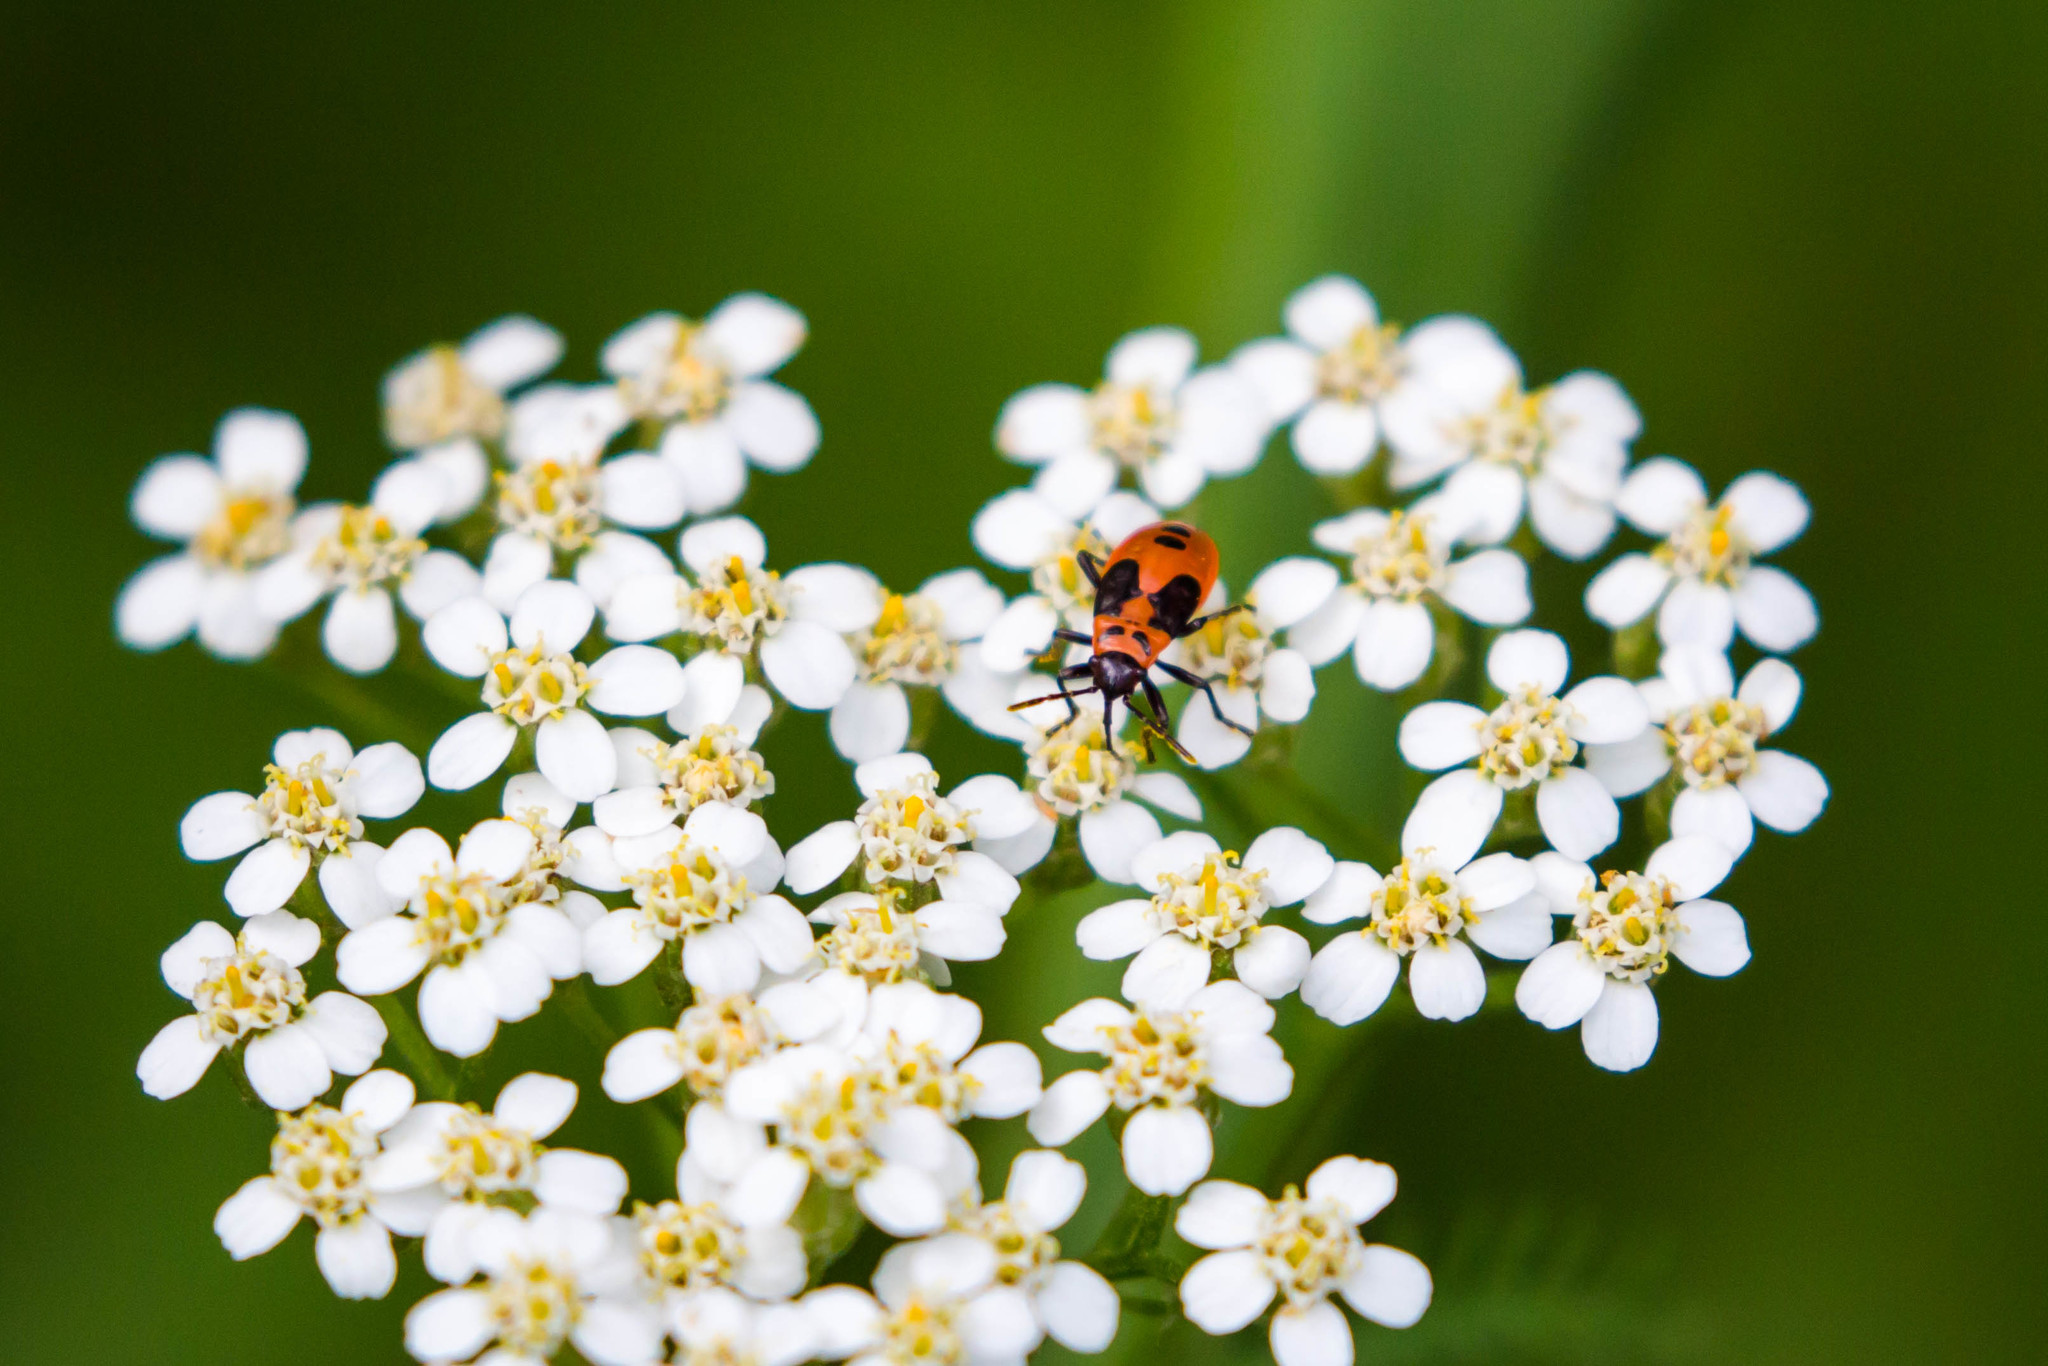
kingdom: Animalia
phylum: Arthropoda
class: Insecta
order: Hemiptera
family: Lygaeidae
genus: Lygaeus
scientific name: Lygaeus turcicus
